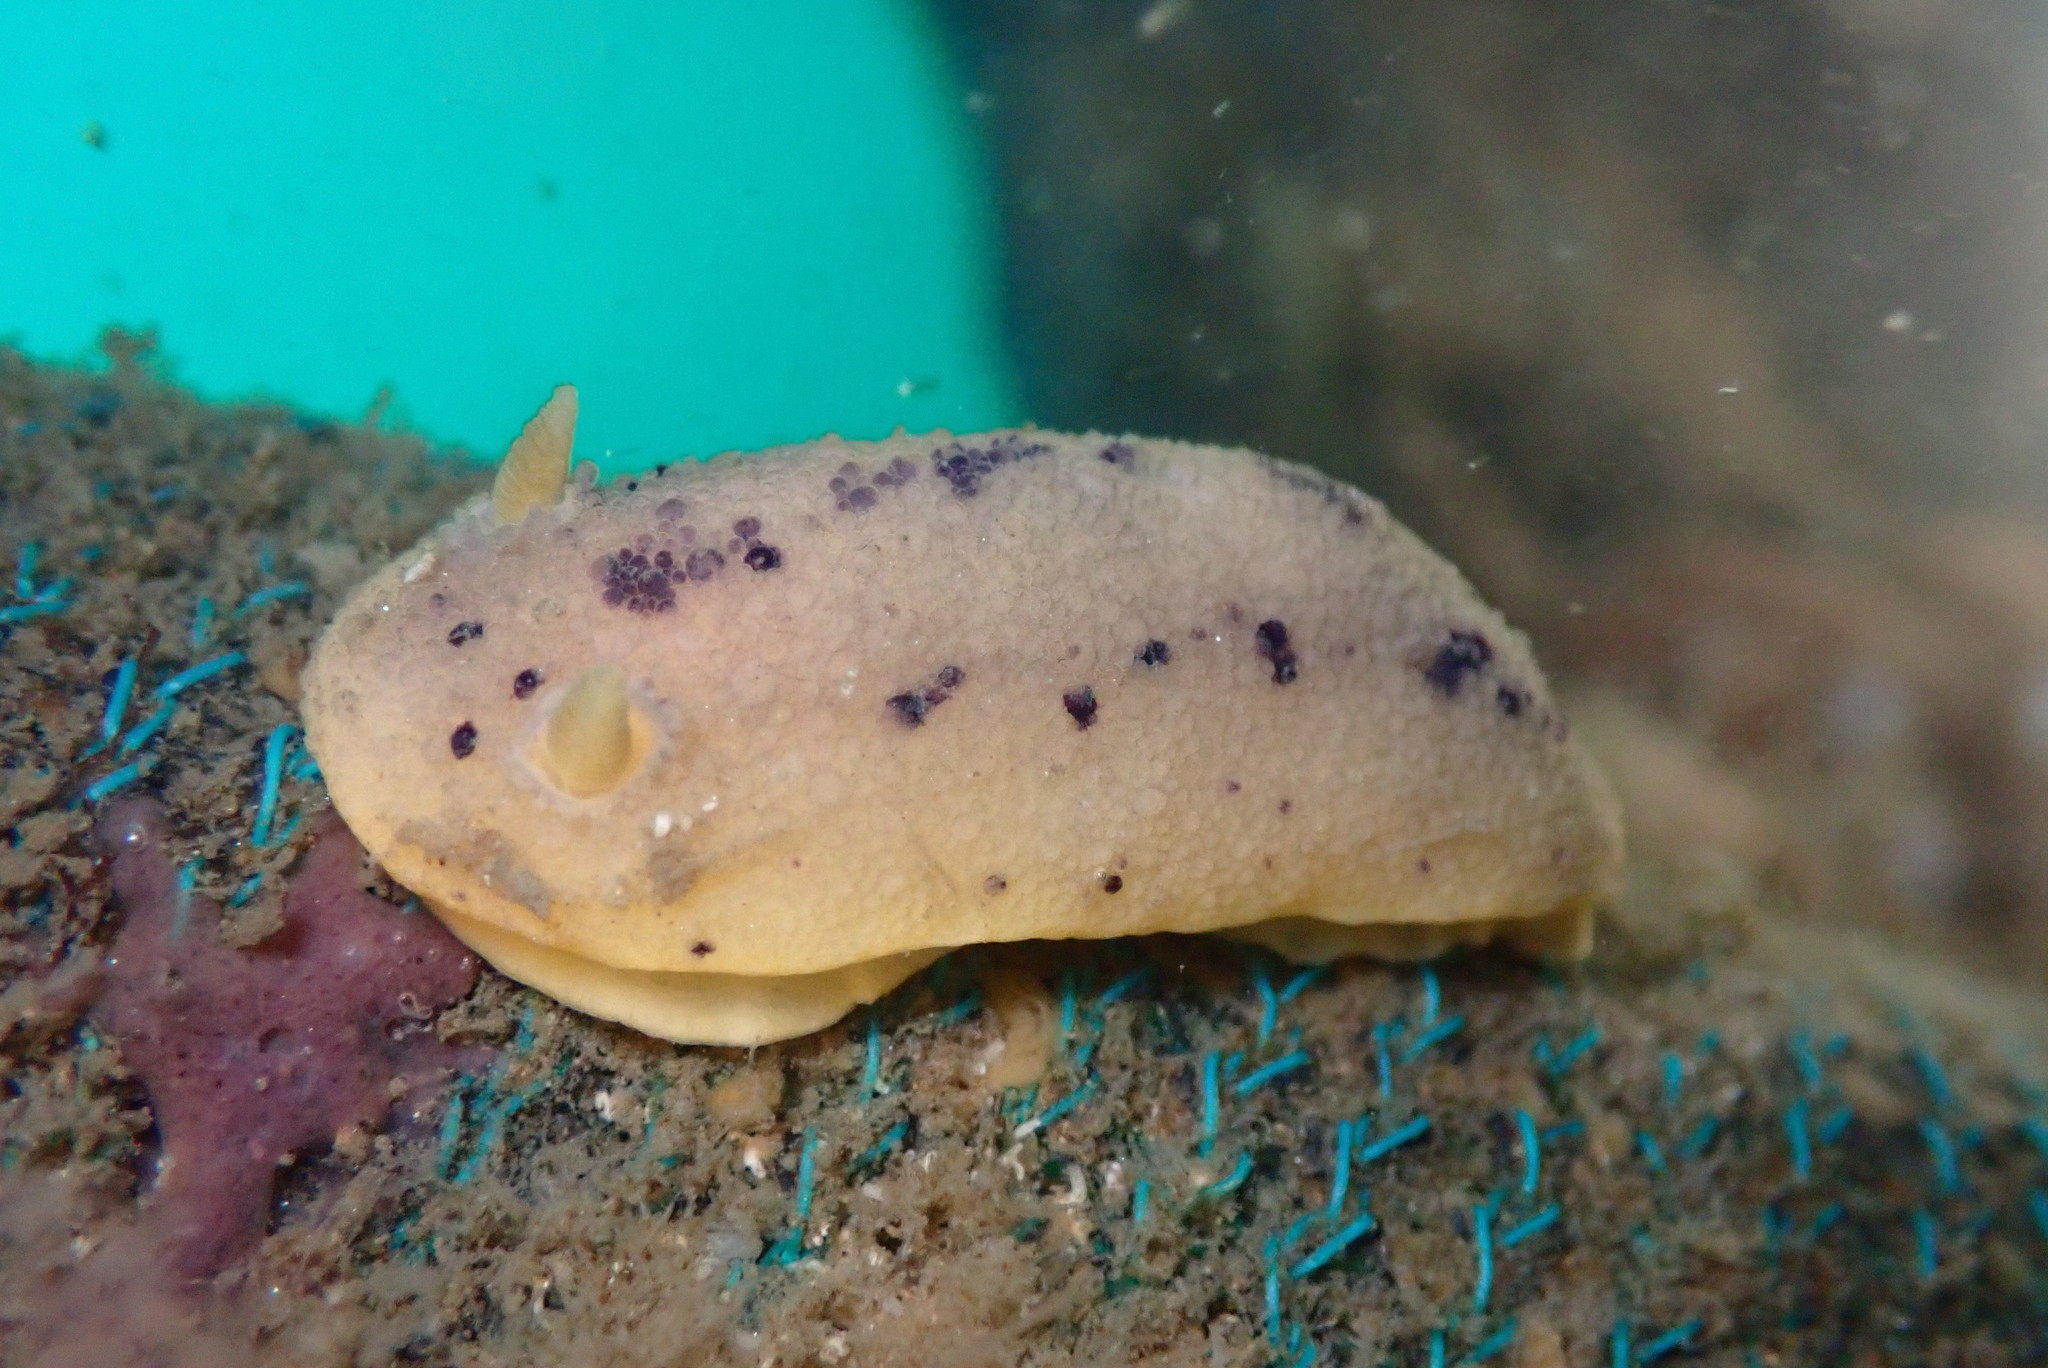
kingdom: Animalia
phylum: Mollusca
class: Gastropoda
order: Nudibranchia
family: Dorididae
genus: Doris
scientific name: Doris montereyensis
